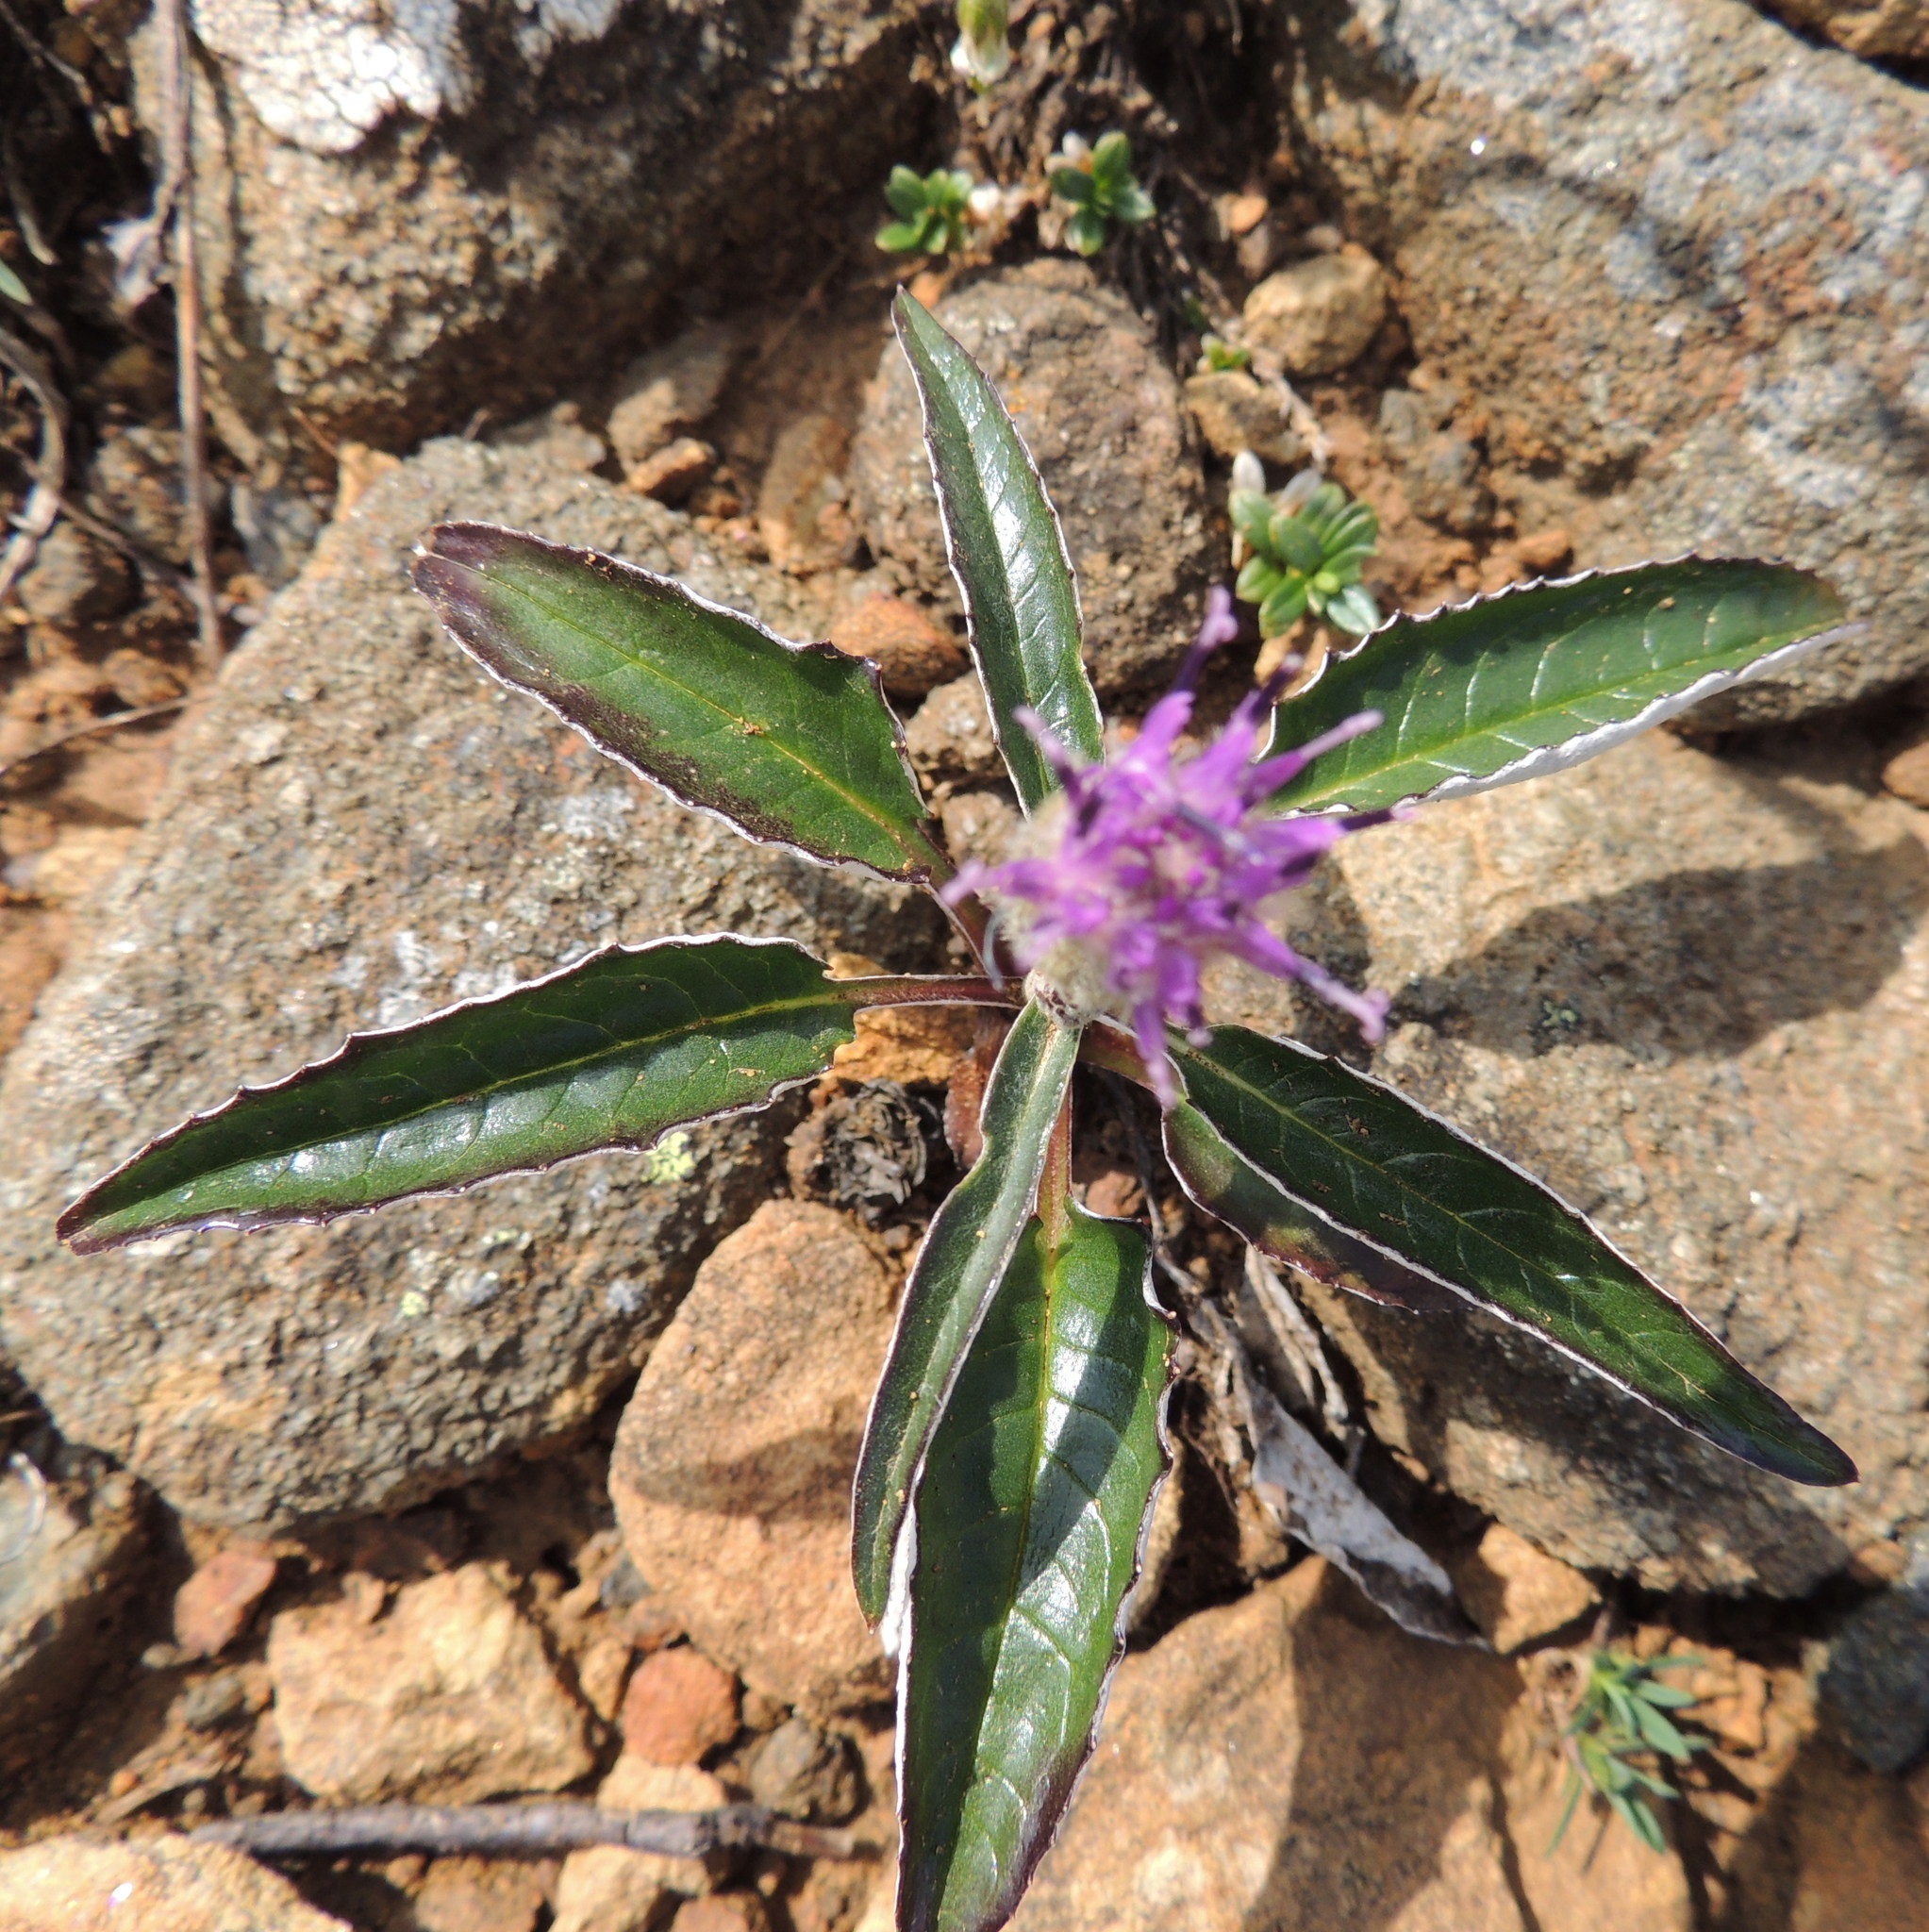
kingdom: Plantae
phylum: Tracheophyta
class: Magnoliopsida
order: Asterales
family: Asteraceae
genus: Saussurea
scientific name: Saussurea uralensis
